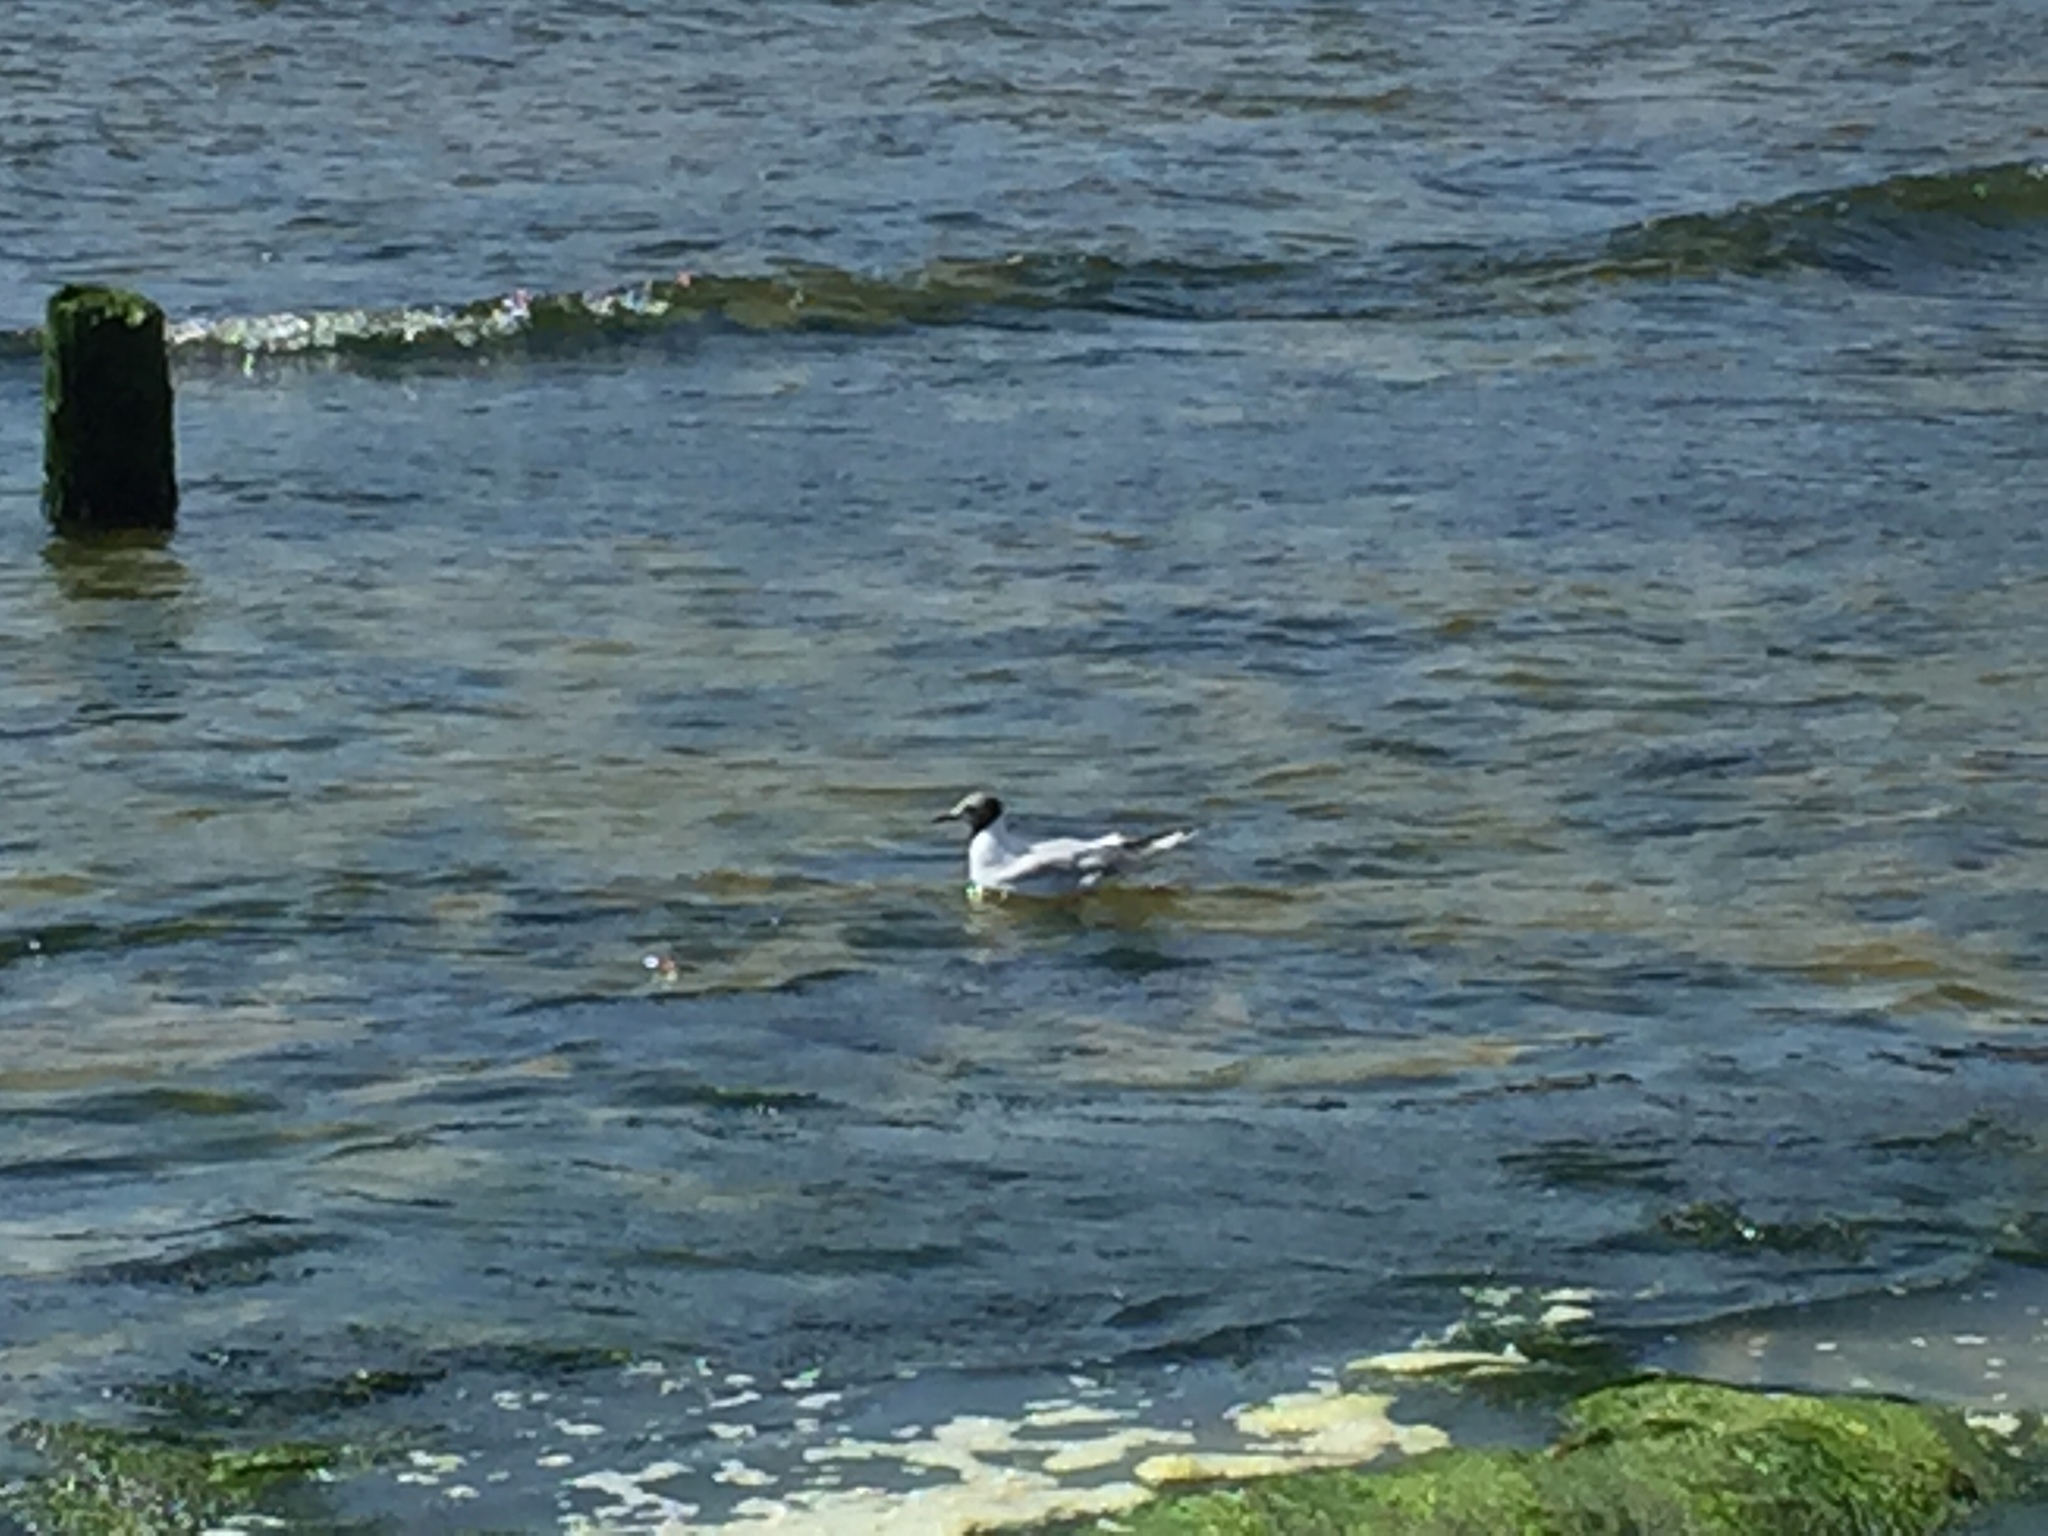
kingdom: Animalia
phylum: Chordata
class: Aves
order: Charadriiformes
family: Laridae
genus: Chroicocephalus
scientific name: Chroicocephalus ridibundus
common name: Black-headed gull
